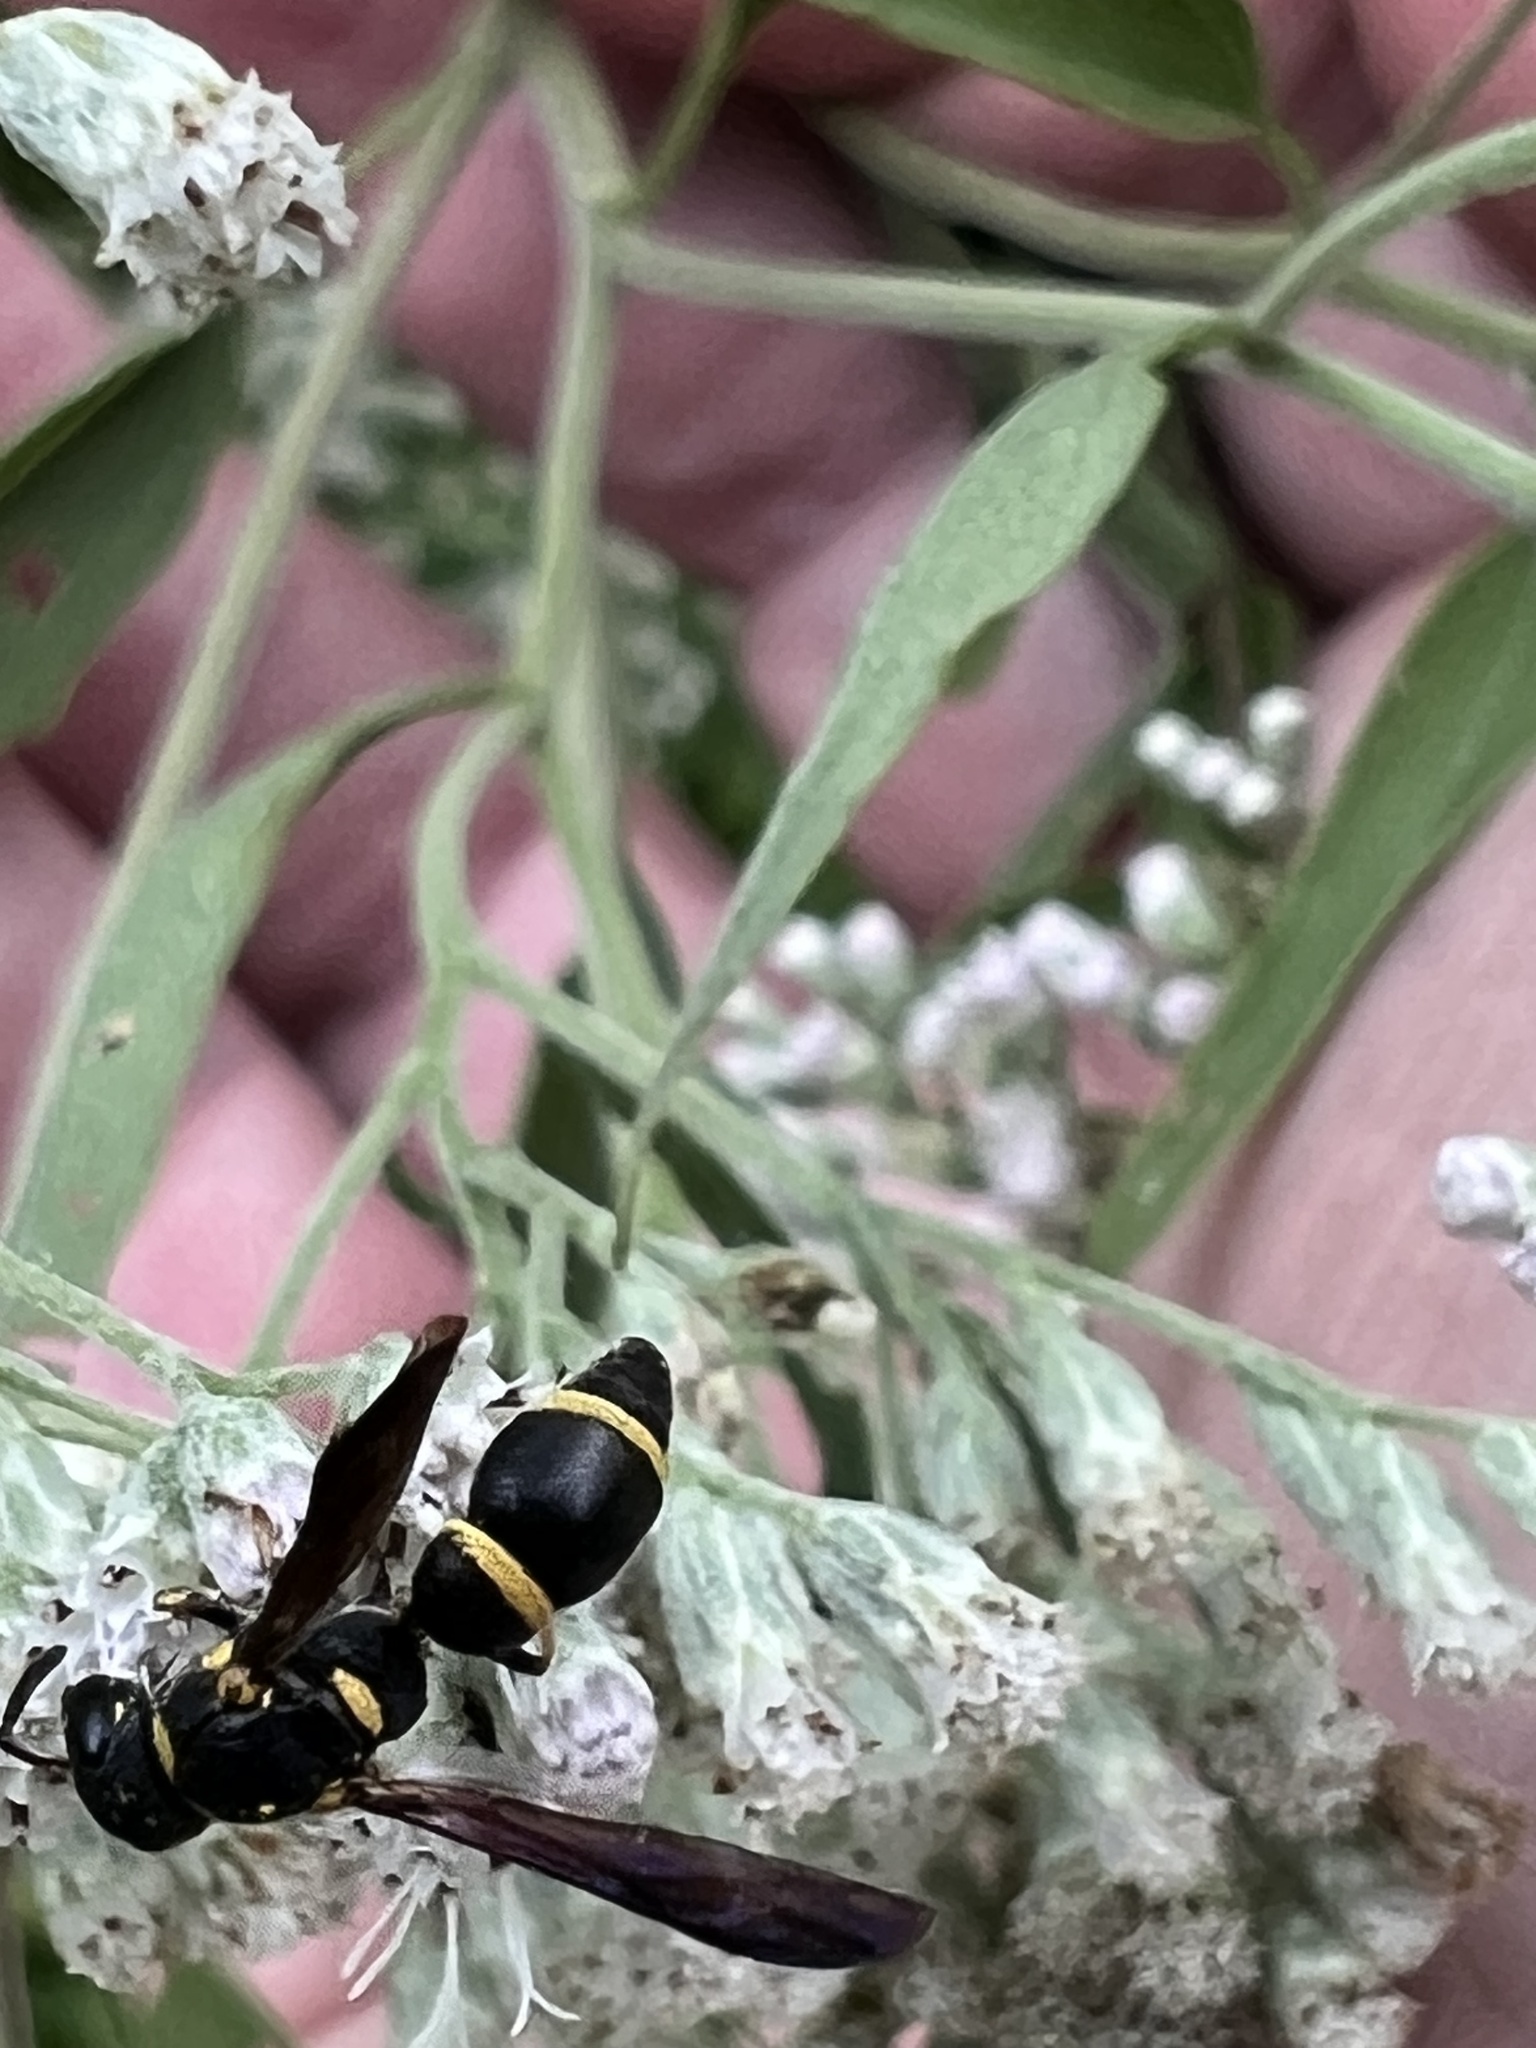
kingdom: Animalia
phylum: Arthropoda
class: Insecta
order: Hymenoptera
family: Eumenidae
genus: Parancistrocerus
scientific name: Parancistrocerus perennis
